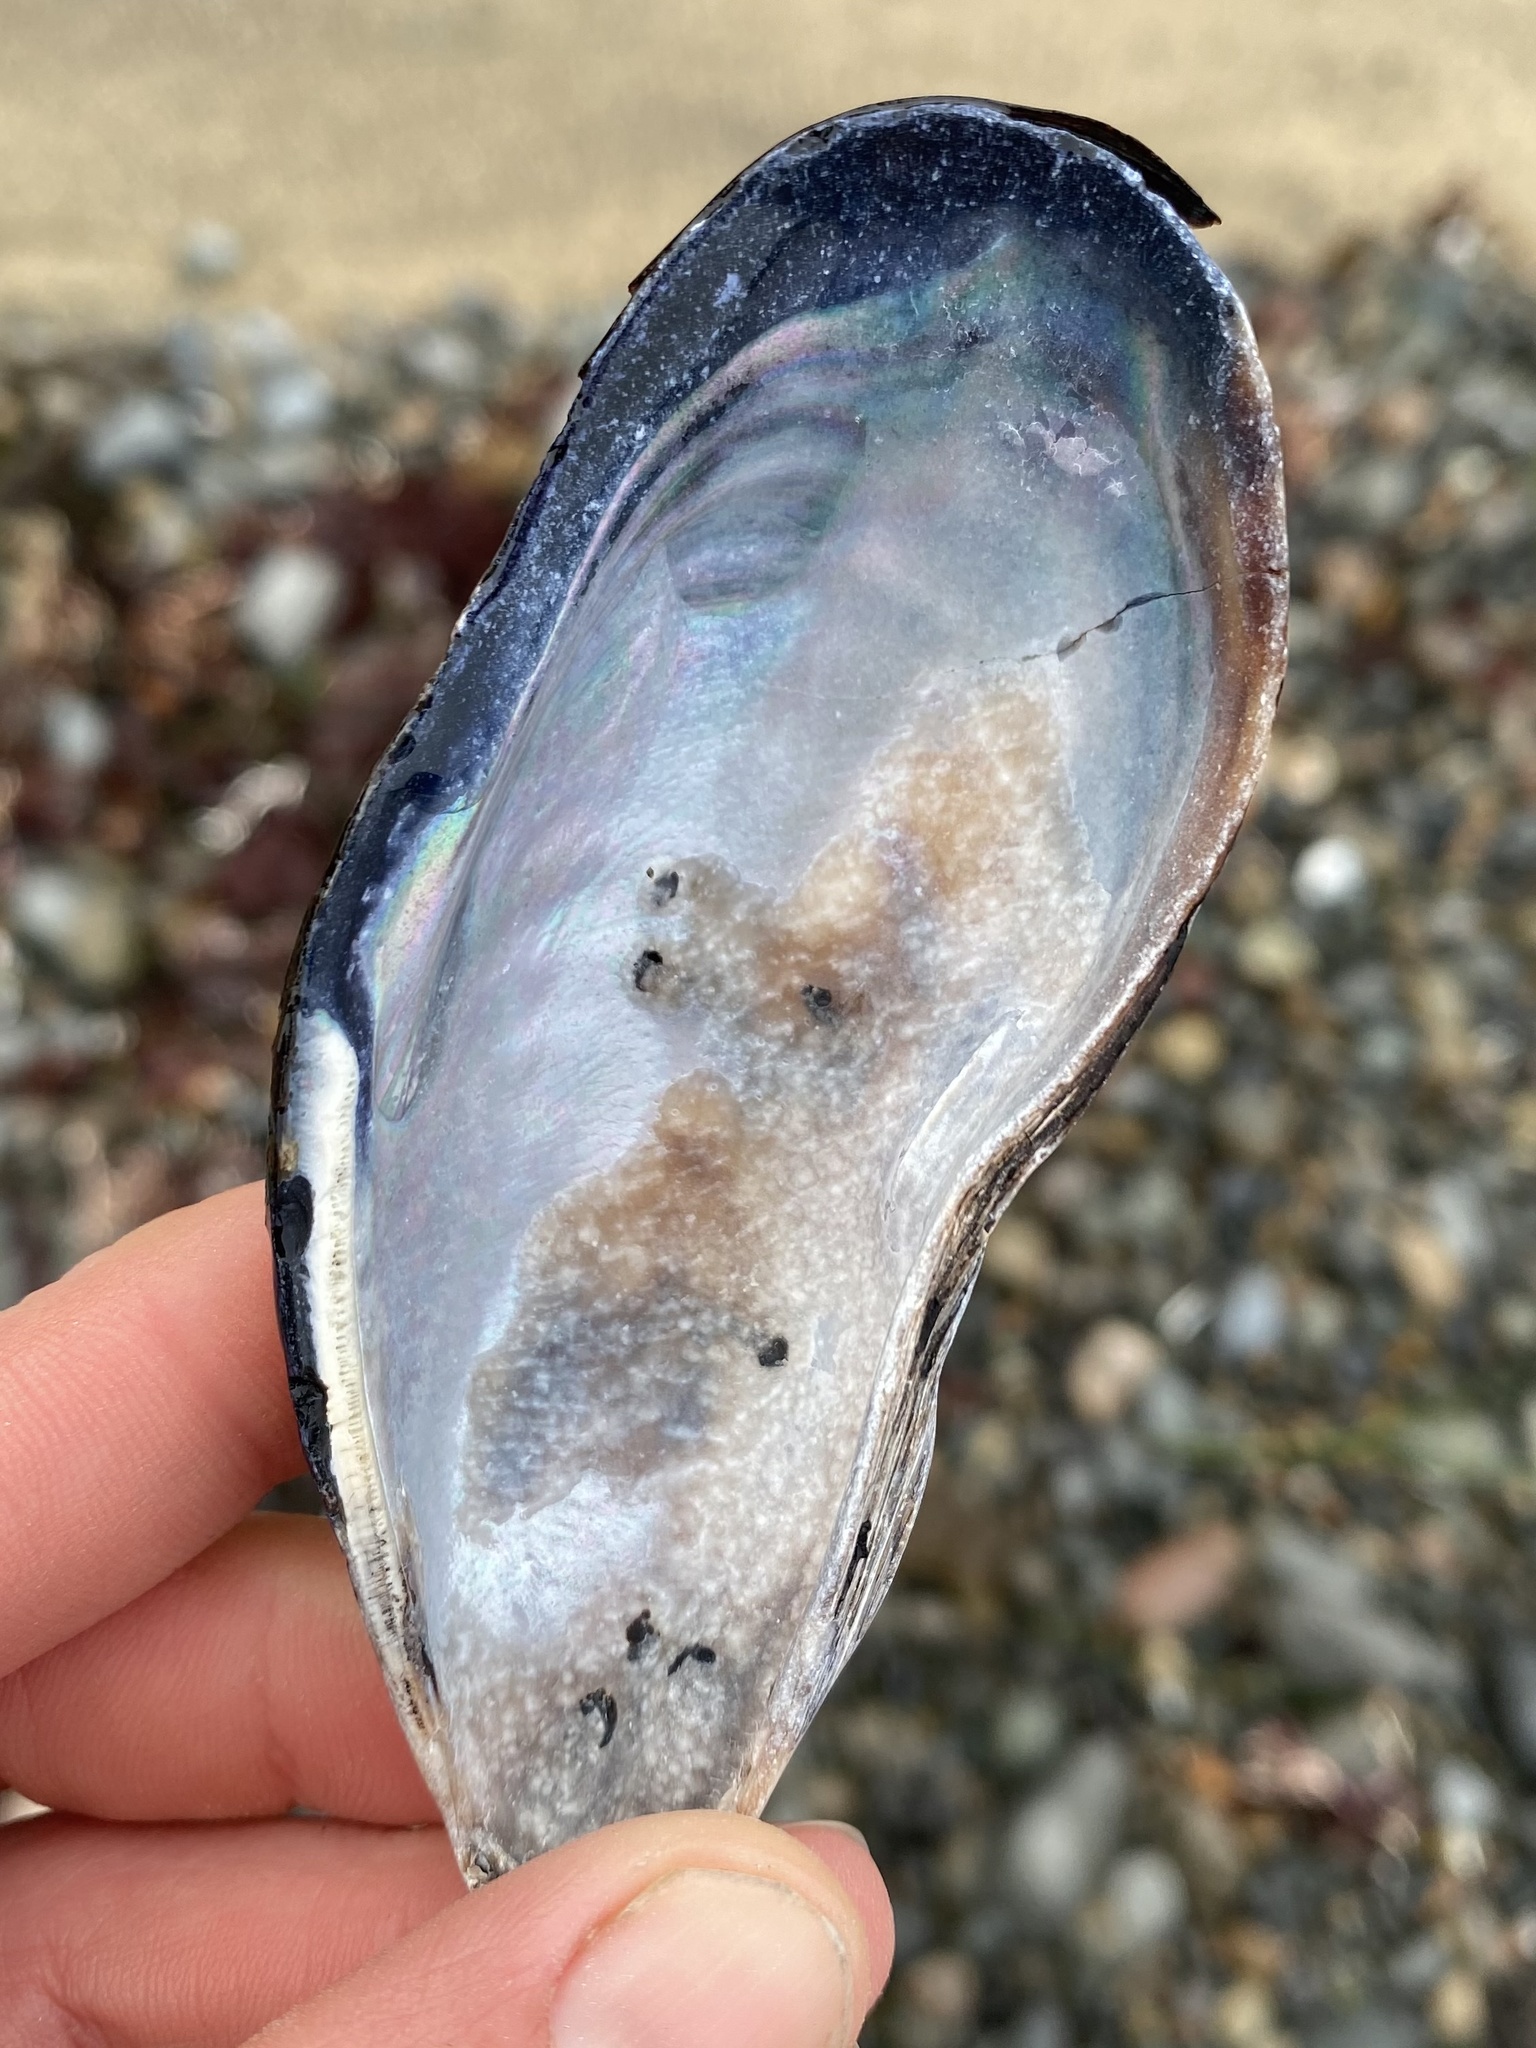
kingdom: Animalia
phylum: Mollusca
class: Bivalvia
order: Mytilida
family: Mytilidae
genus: Mytilus
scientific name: Mytilus californianus
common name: California mussel
